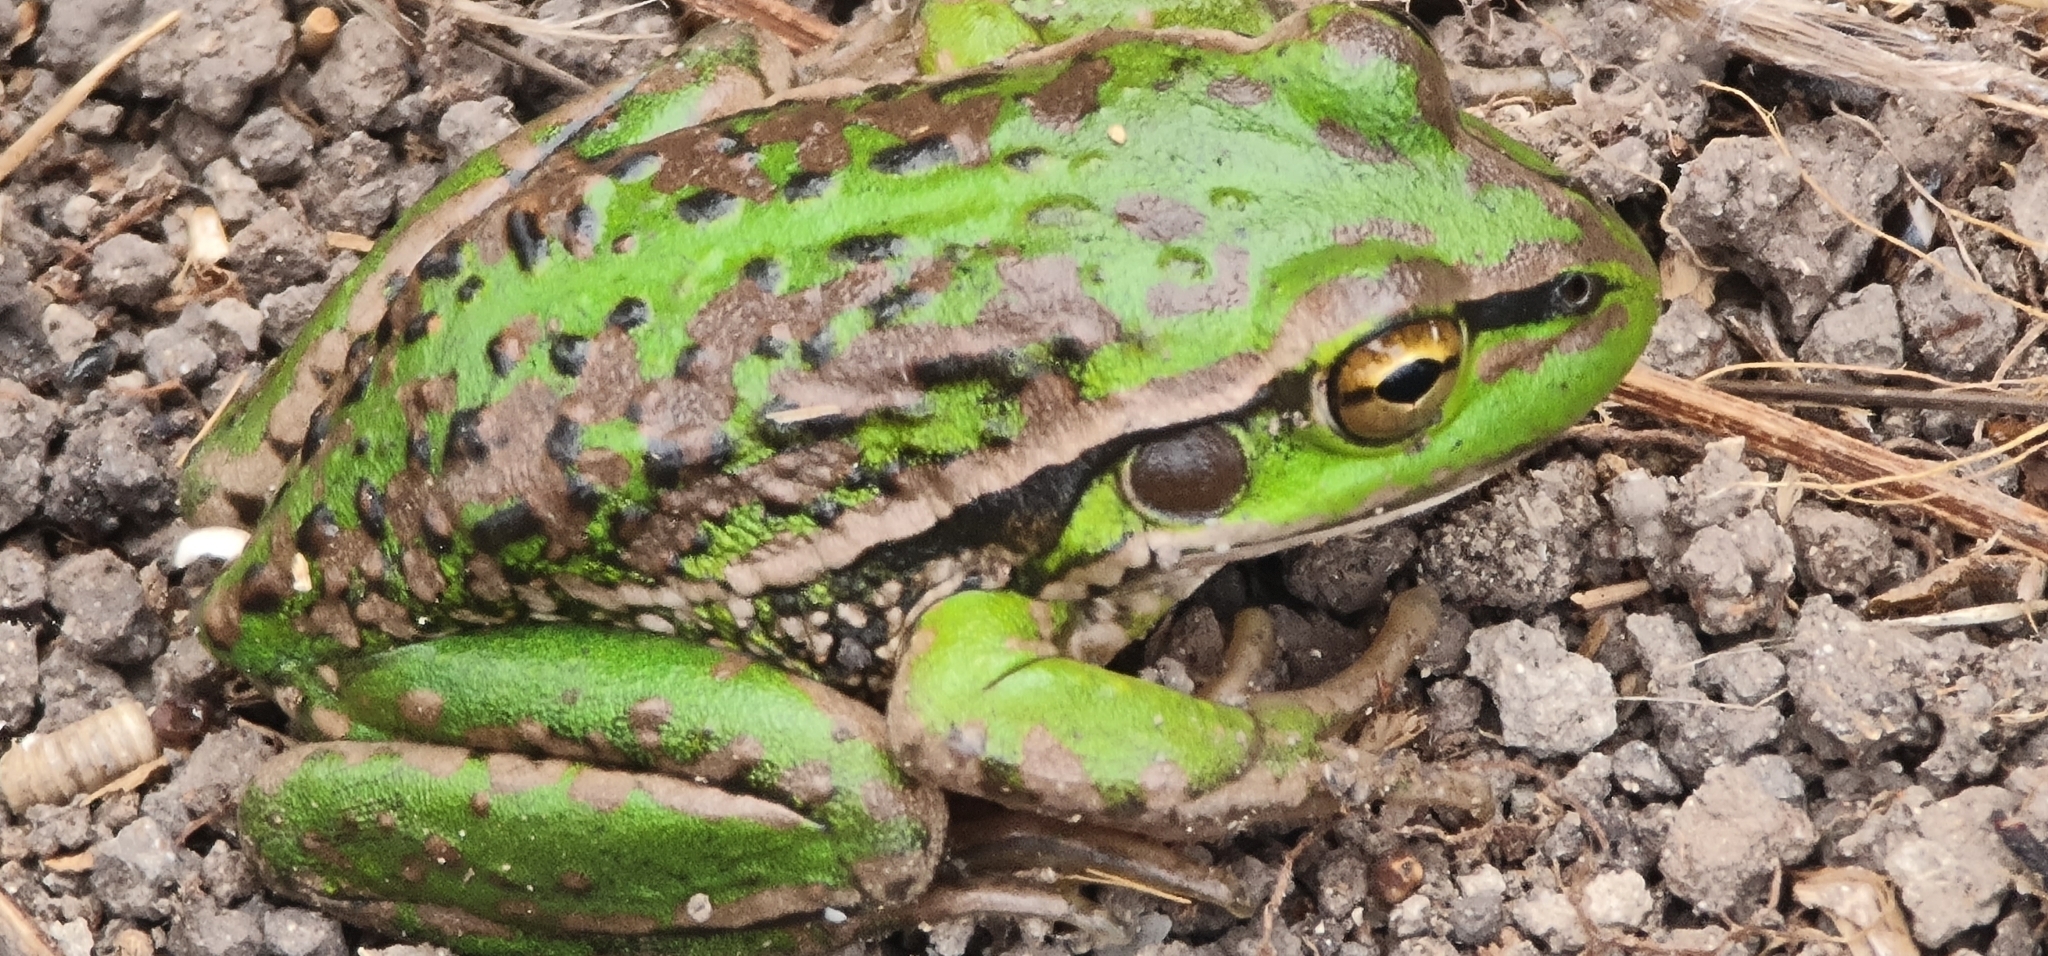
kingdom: Animalia
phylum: Chordata
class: Amphibia
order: Anura
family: Pelodryadidae
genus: Ranoidea
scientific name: Ranoidea raniformis
